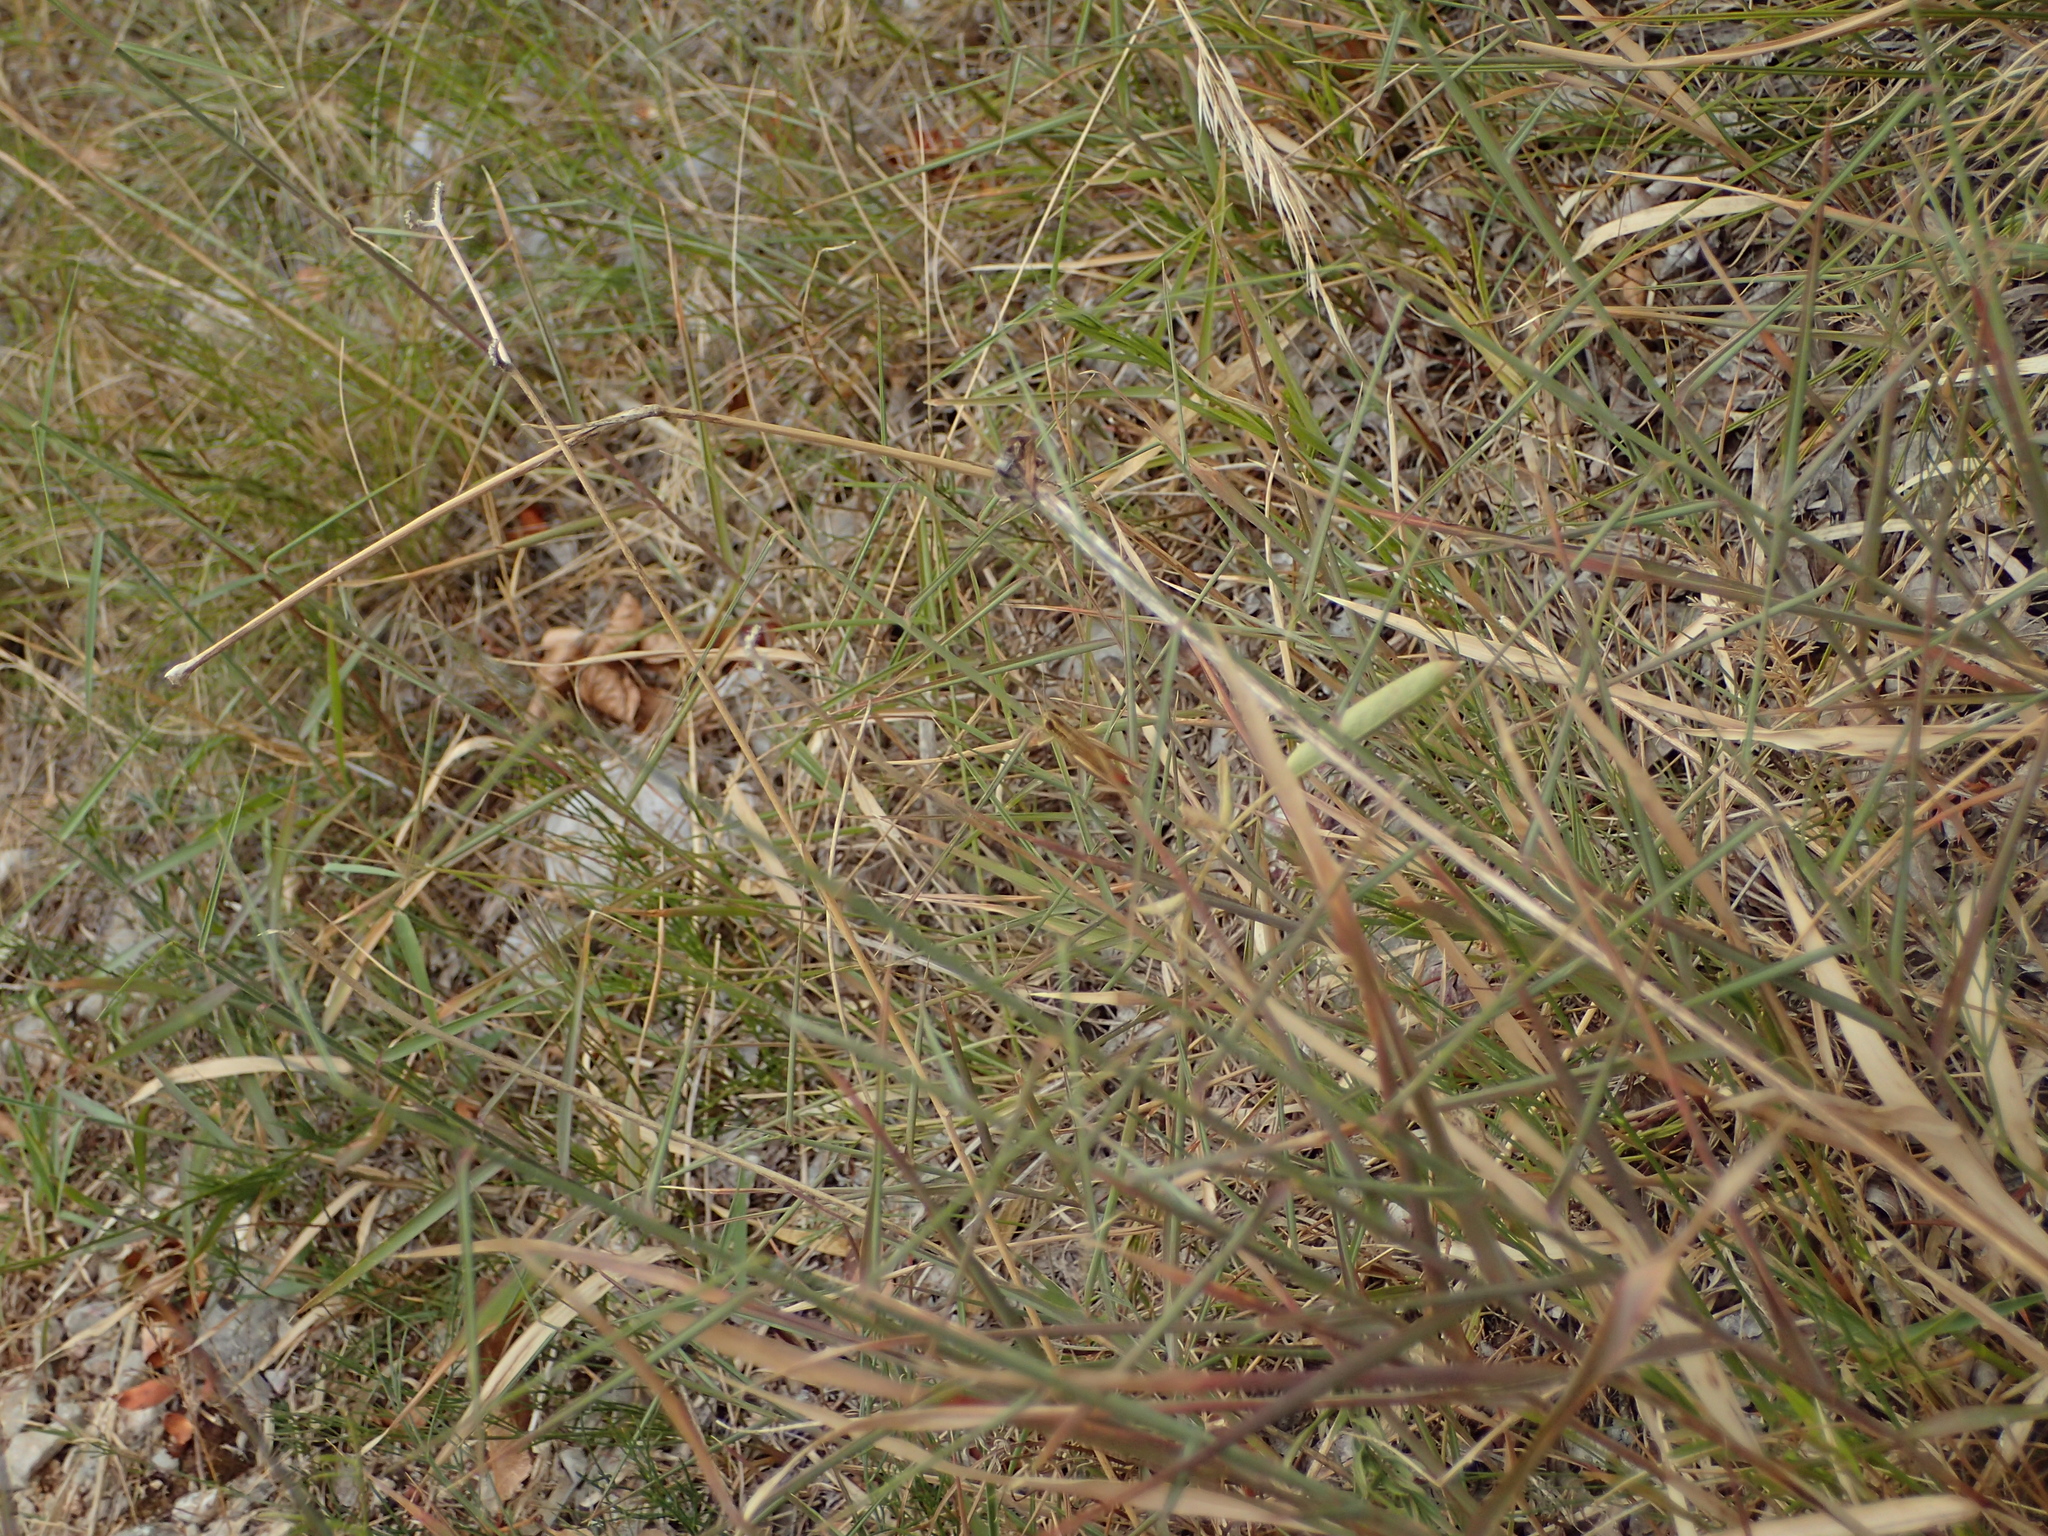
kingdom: Animalia
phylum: Arthropoda
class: Insecta
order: Orthoptera
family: Acrididae
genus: Euchorthippus
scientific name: Euchorthippus declivus
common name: Common straw grasshopper
